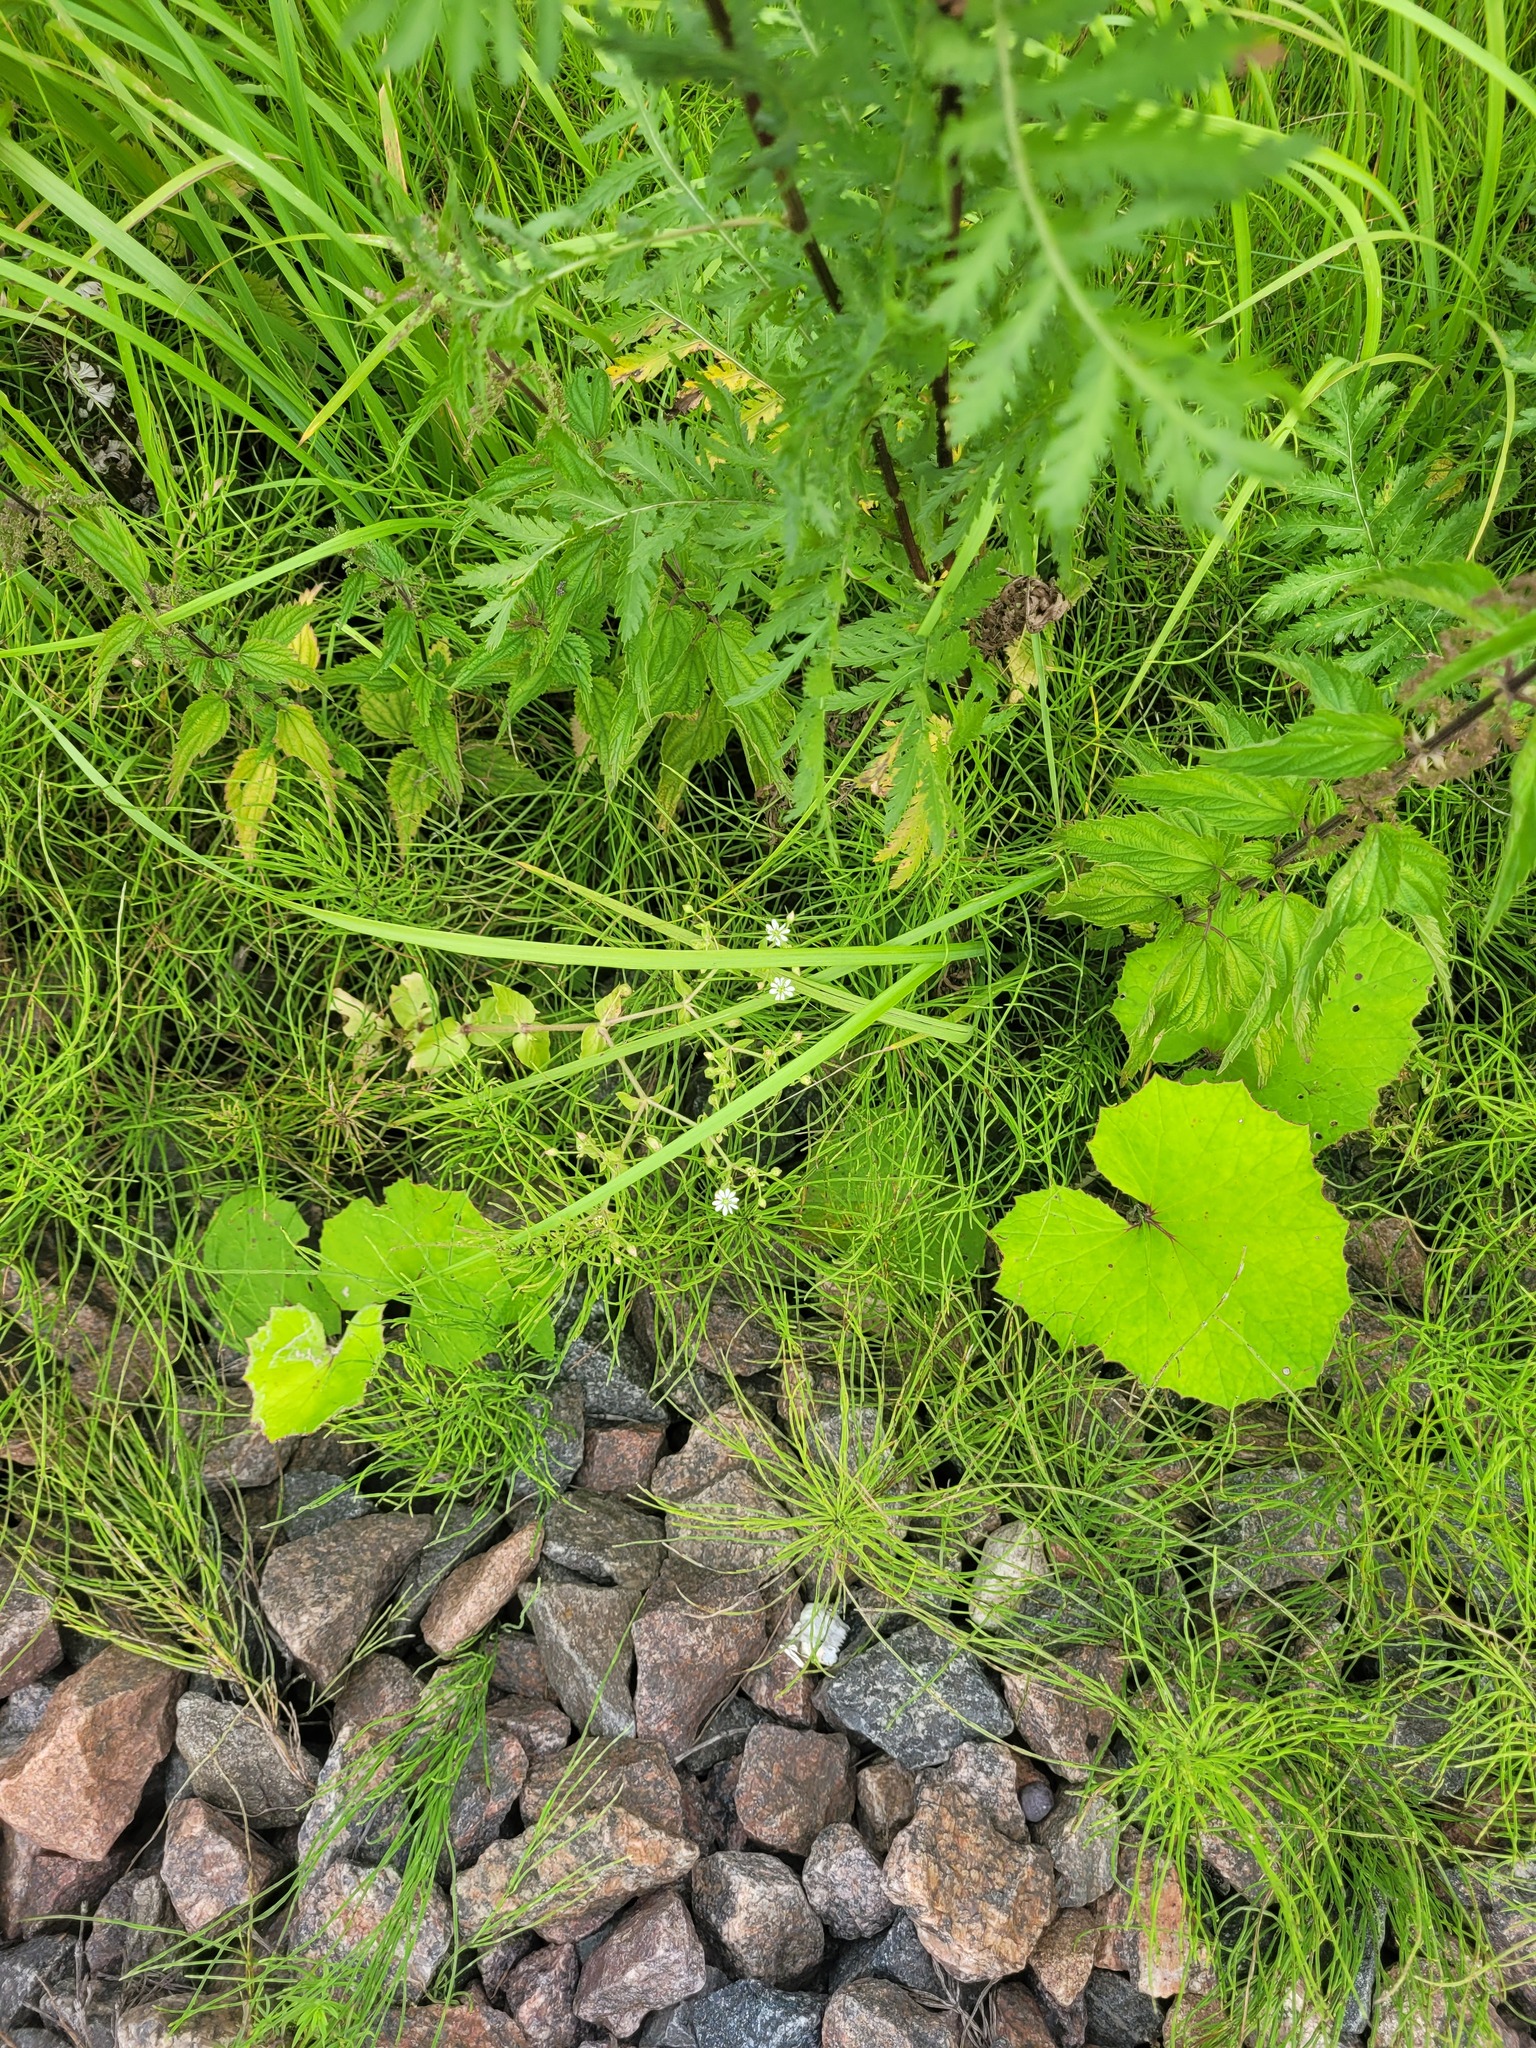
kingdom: Plantae
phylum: Tracheophyta
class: Magnoliopsida
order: Caryophyllales
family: Caryophyllaceae
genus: Stellaria
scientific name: Stellaria aquatica
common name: Water chickweed
